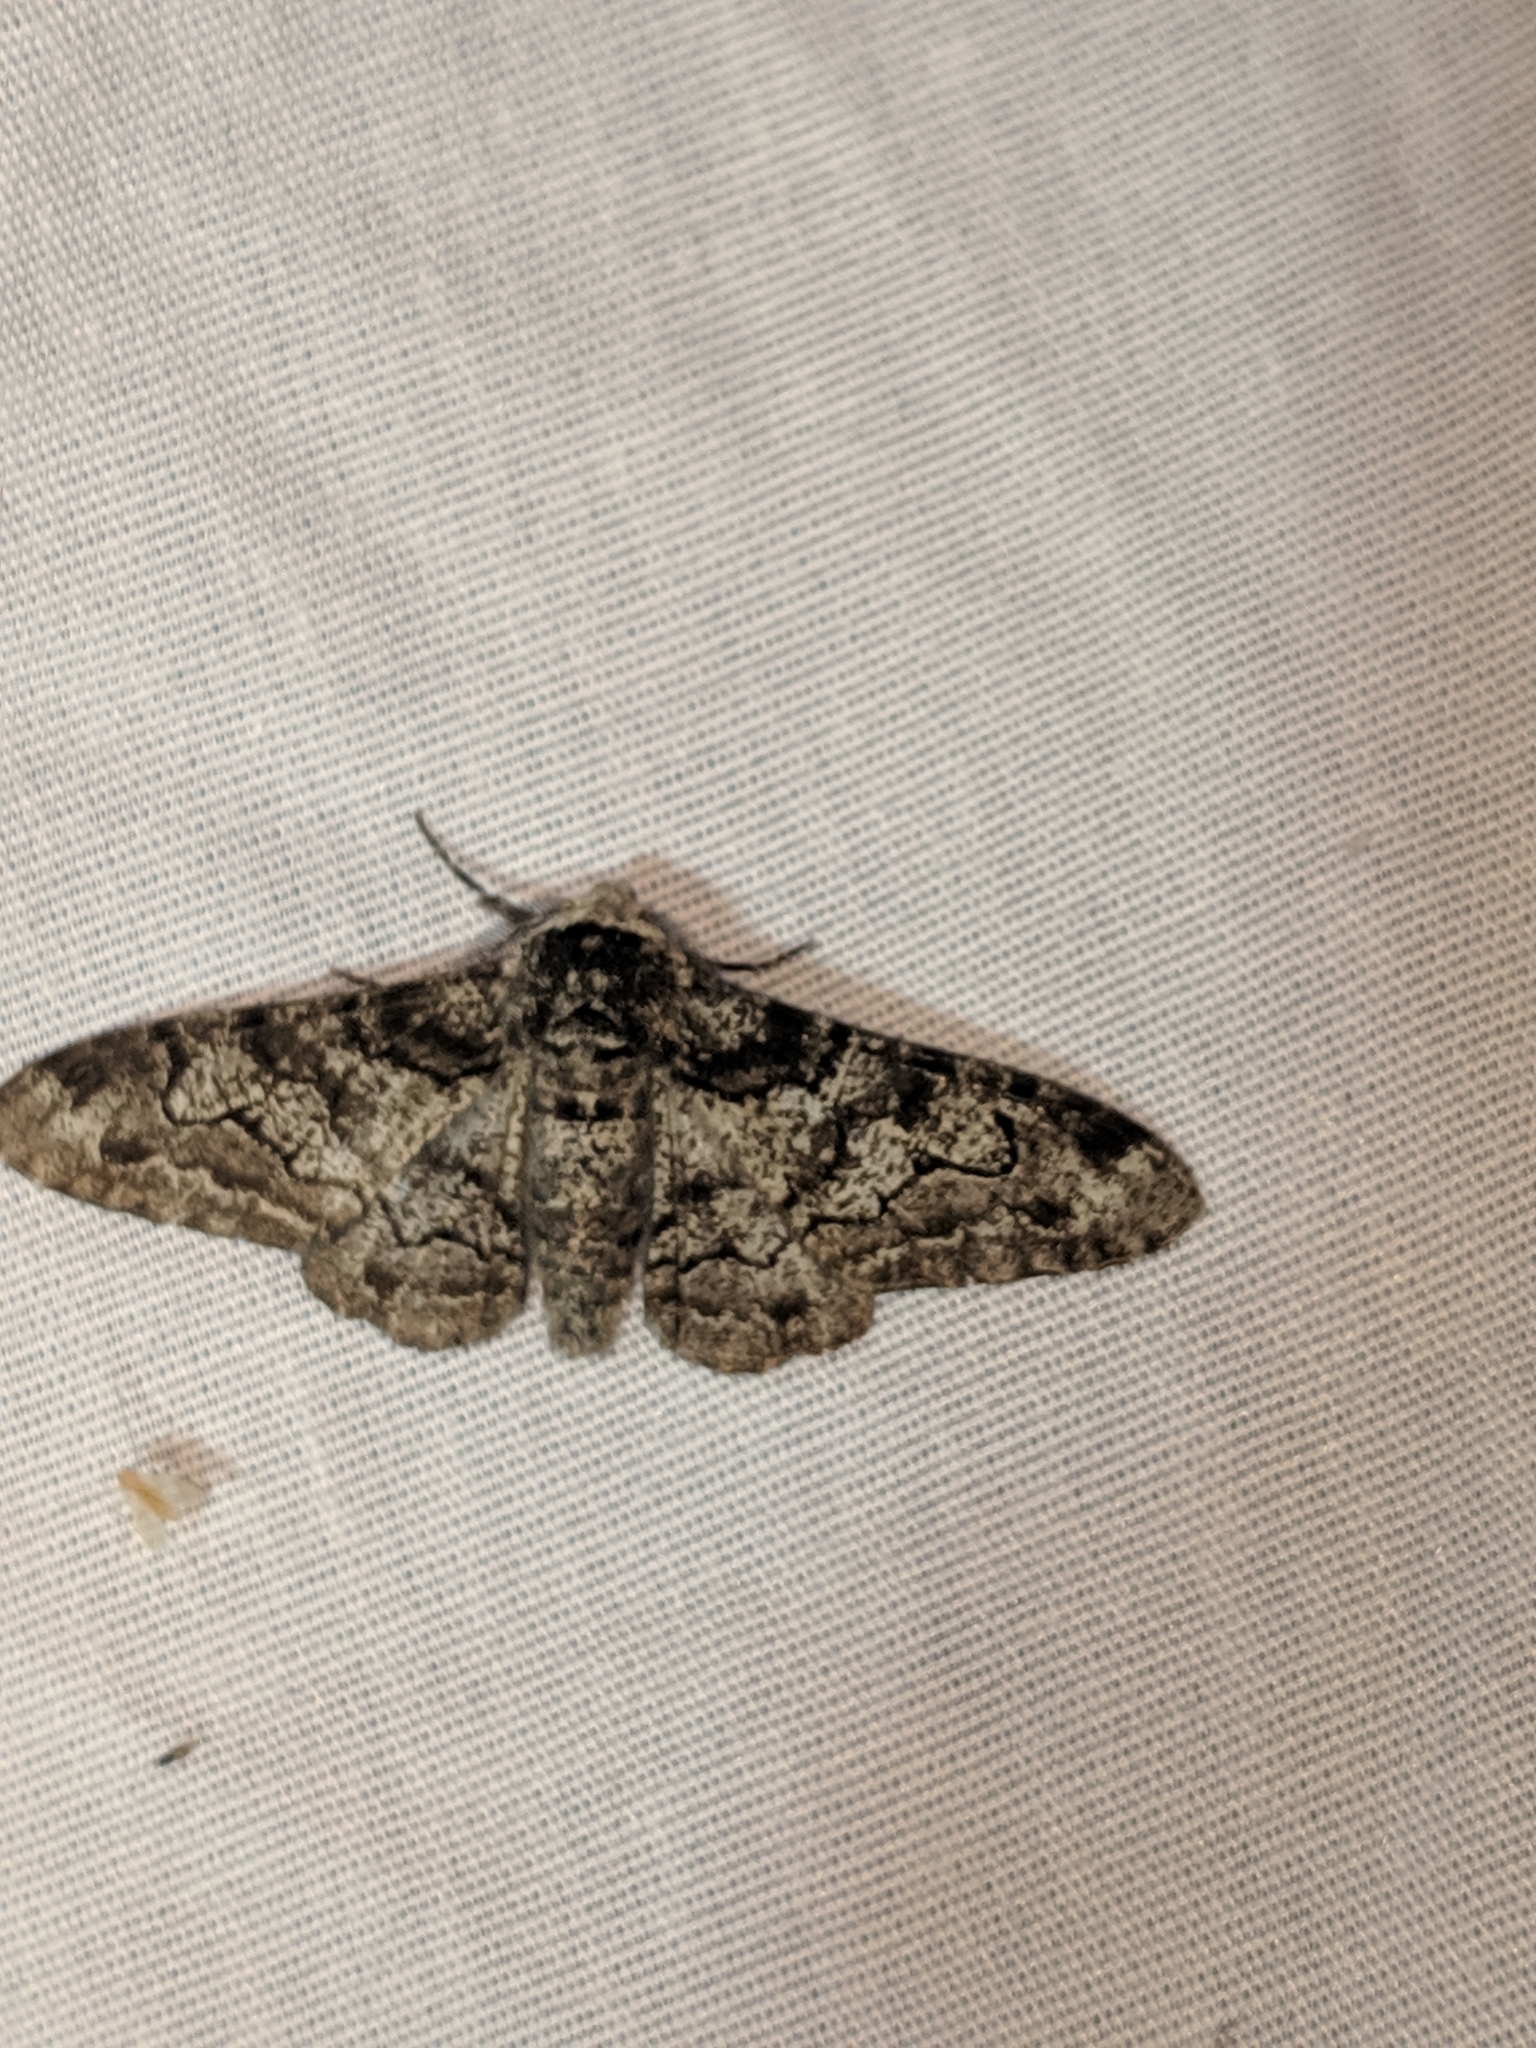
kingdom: Animalia
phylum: Arthropoda
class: Insecta
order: Lepidoptera
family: Geometridae
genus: Biston
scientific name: Biston betularia
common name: Peppered moth
